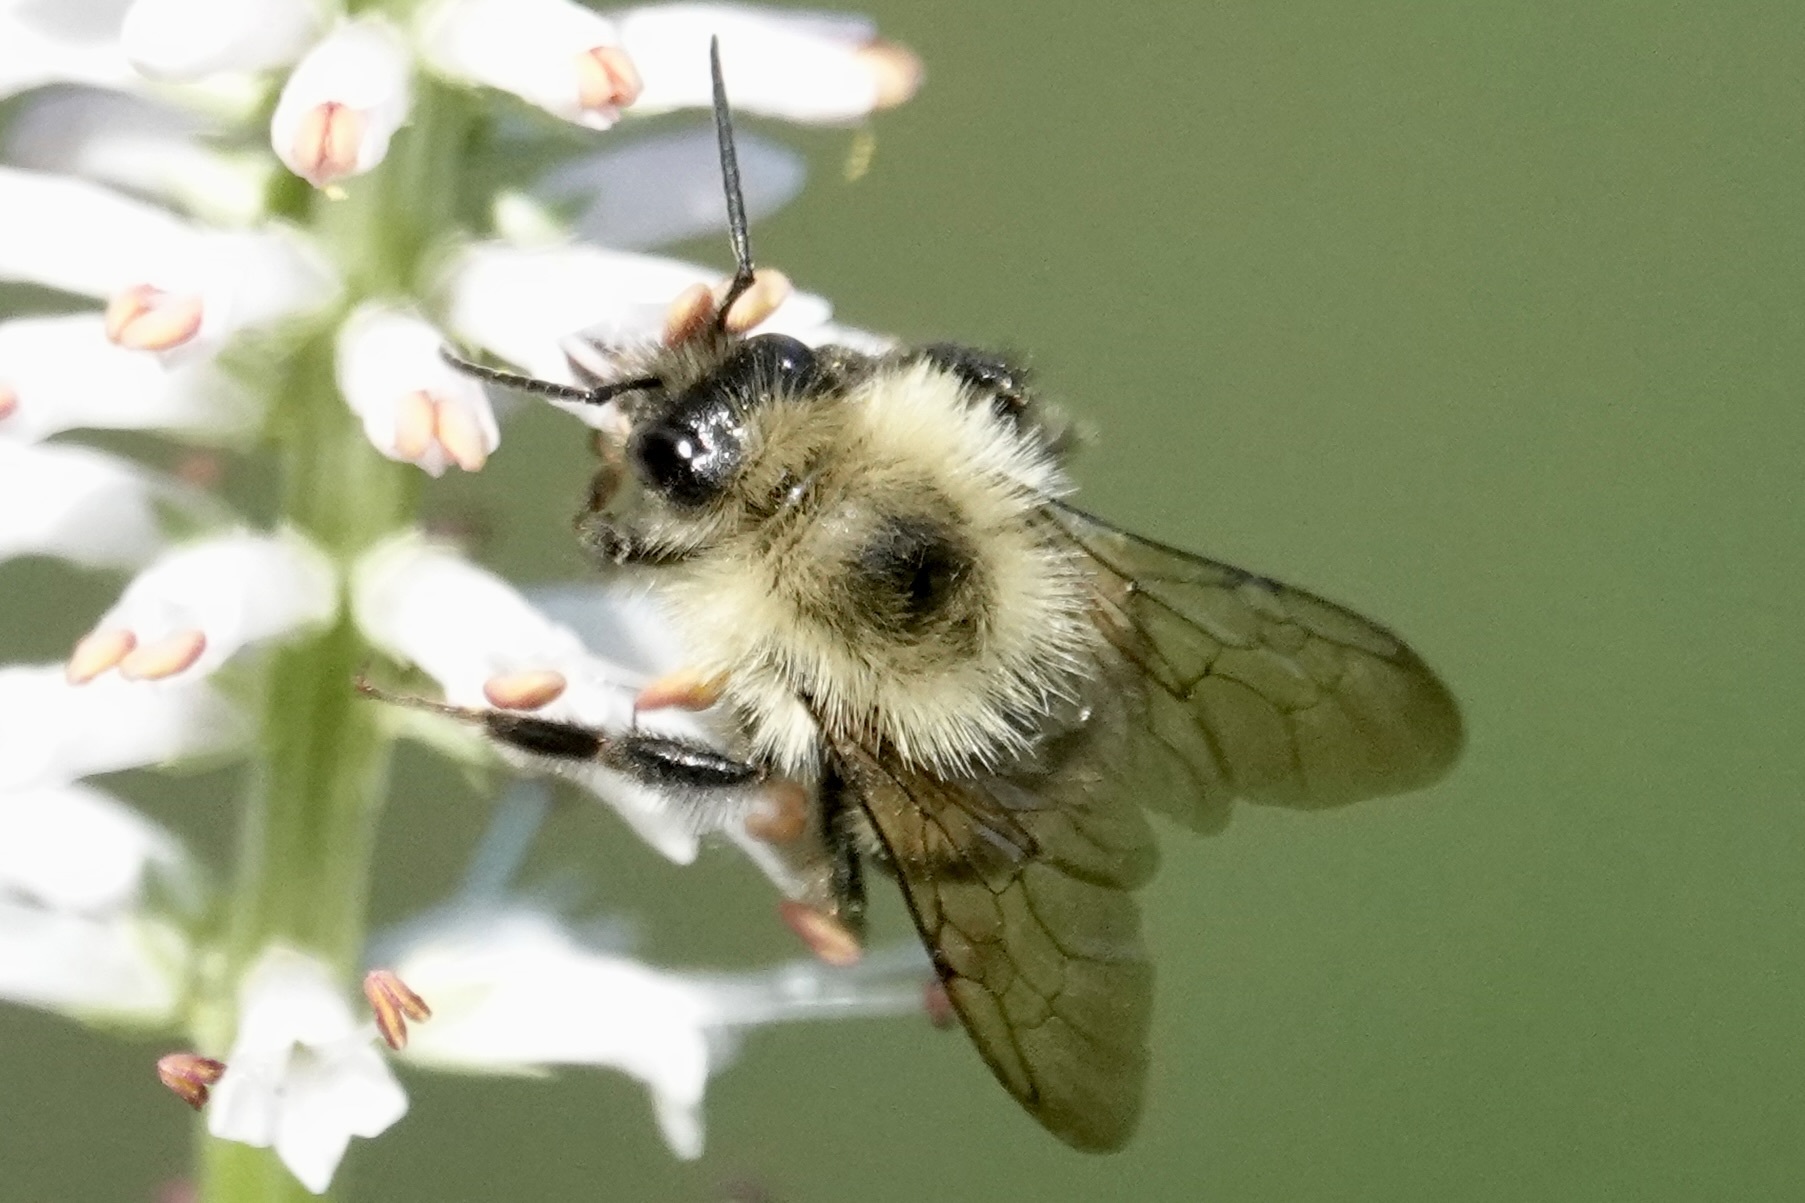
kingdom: Animalia
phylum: Arthropoda
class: Insecta
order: Hymenoptera
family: Apidae
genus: Bombus
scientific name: Bombus bimaculatus
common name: Two-spotted bumble bee
